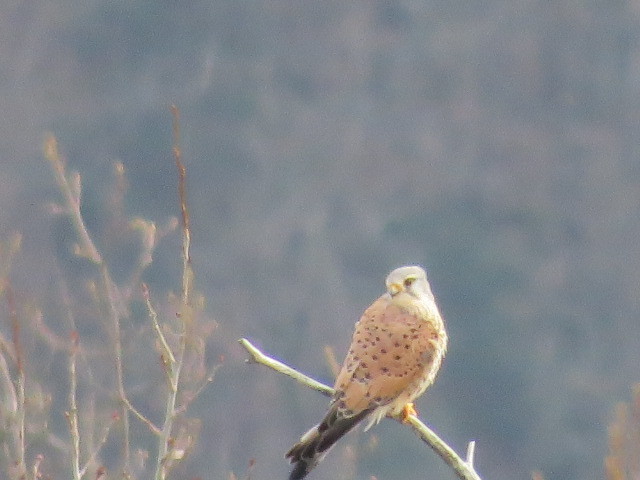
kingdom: Animalia
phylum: Chordata
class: Aves
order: Falconiformes
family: Falconidae
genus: Falco
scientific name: Falco tinnunculus
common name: Common kestrel
